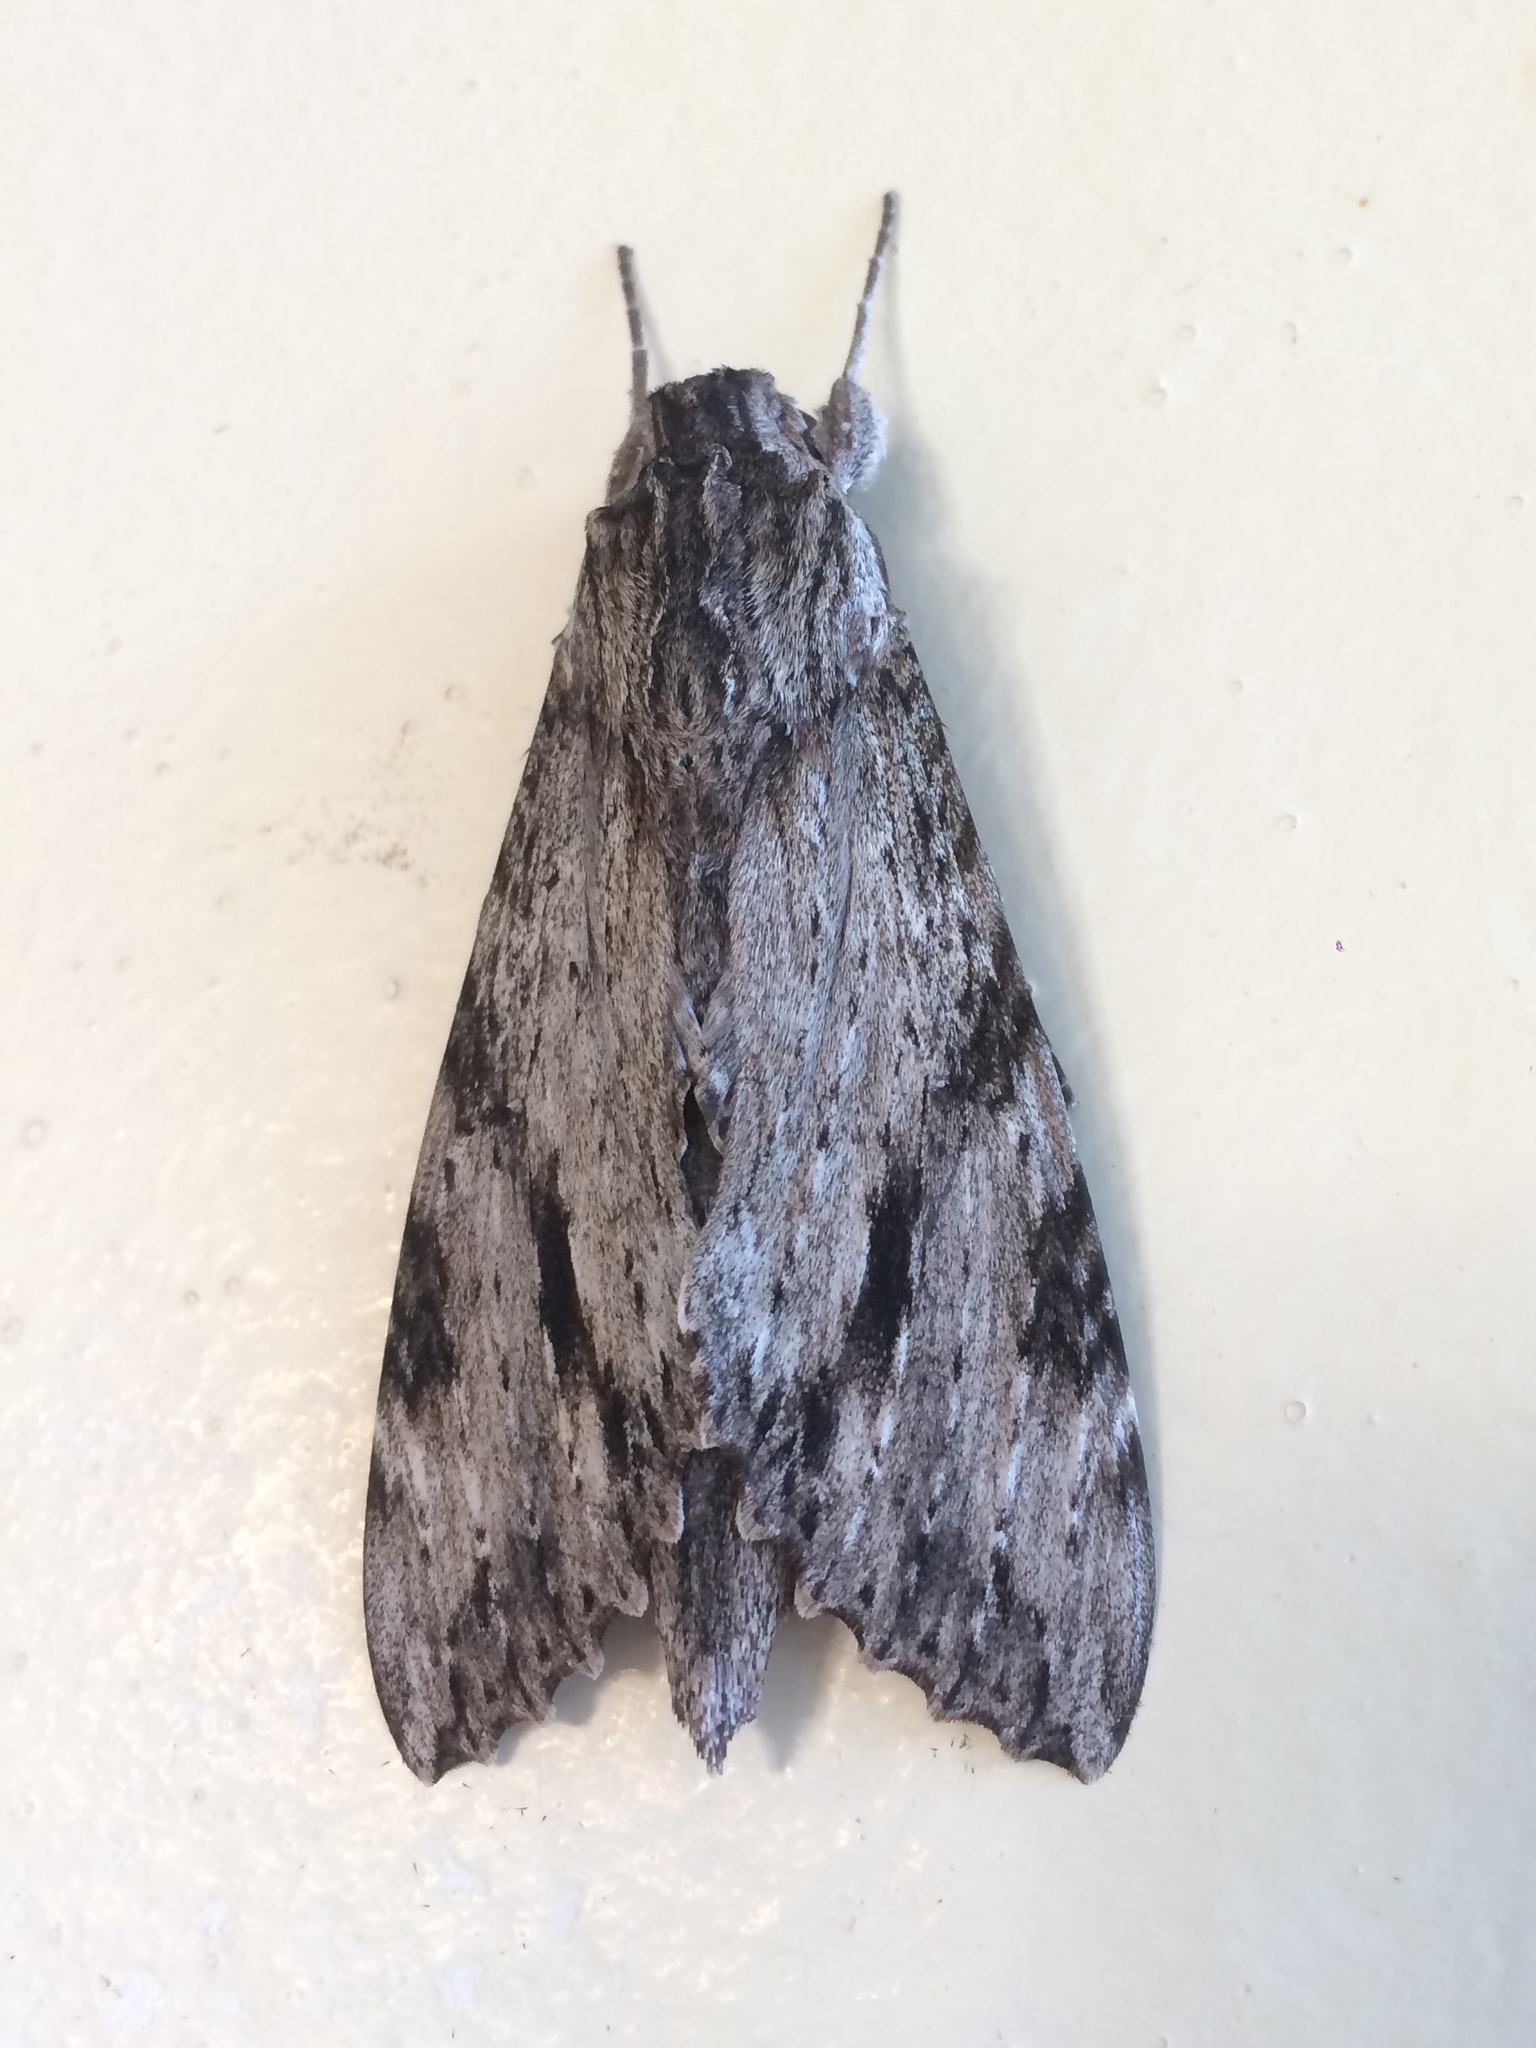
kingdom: Animalia
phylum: Arthropoda
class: Insecta
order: Lepidoptera
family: Sphingidae
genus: Isognathus
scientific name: Isognathus menechus
